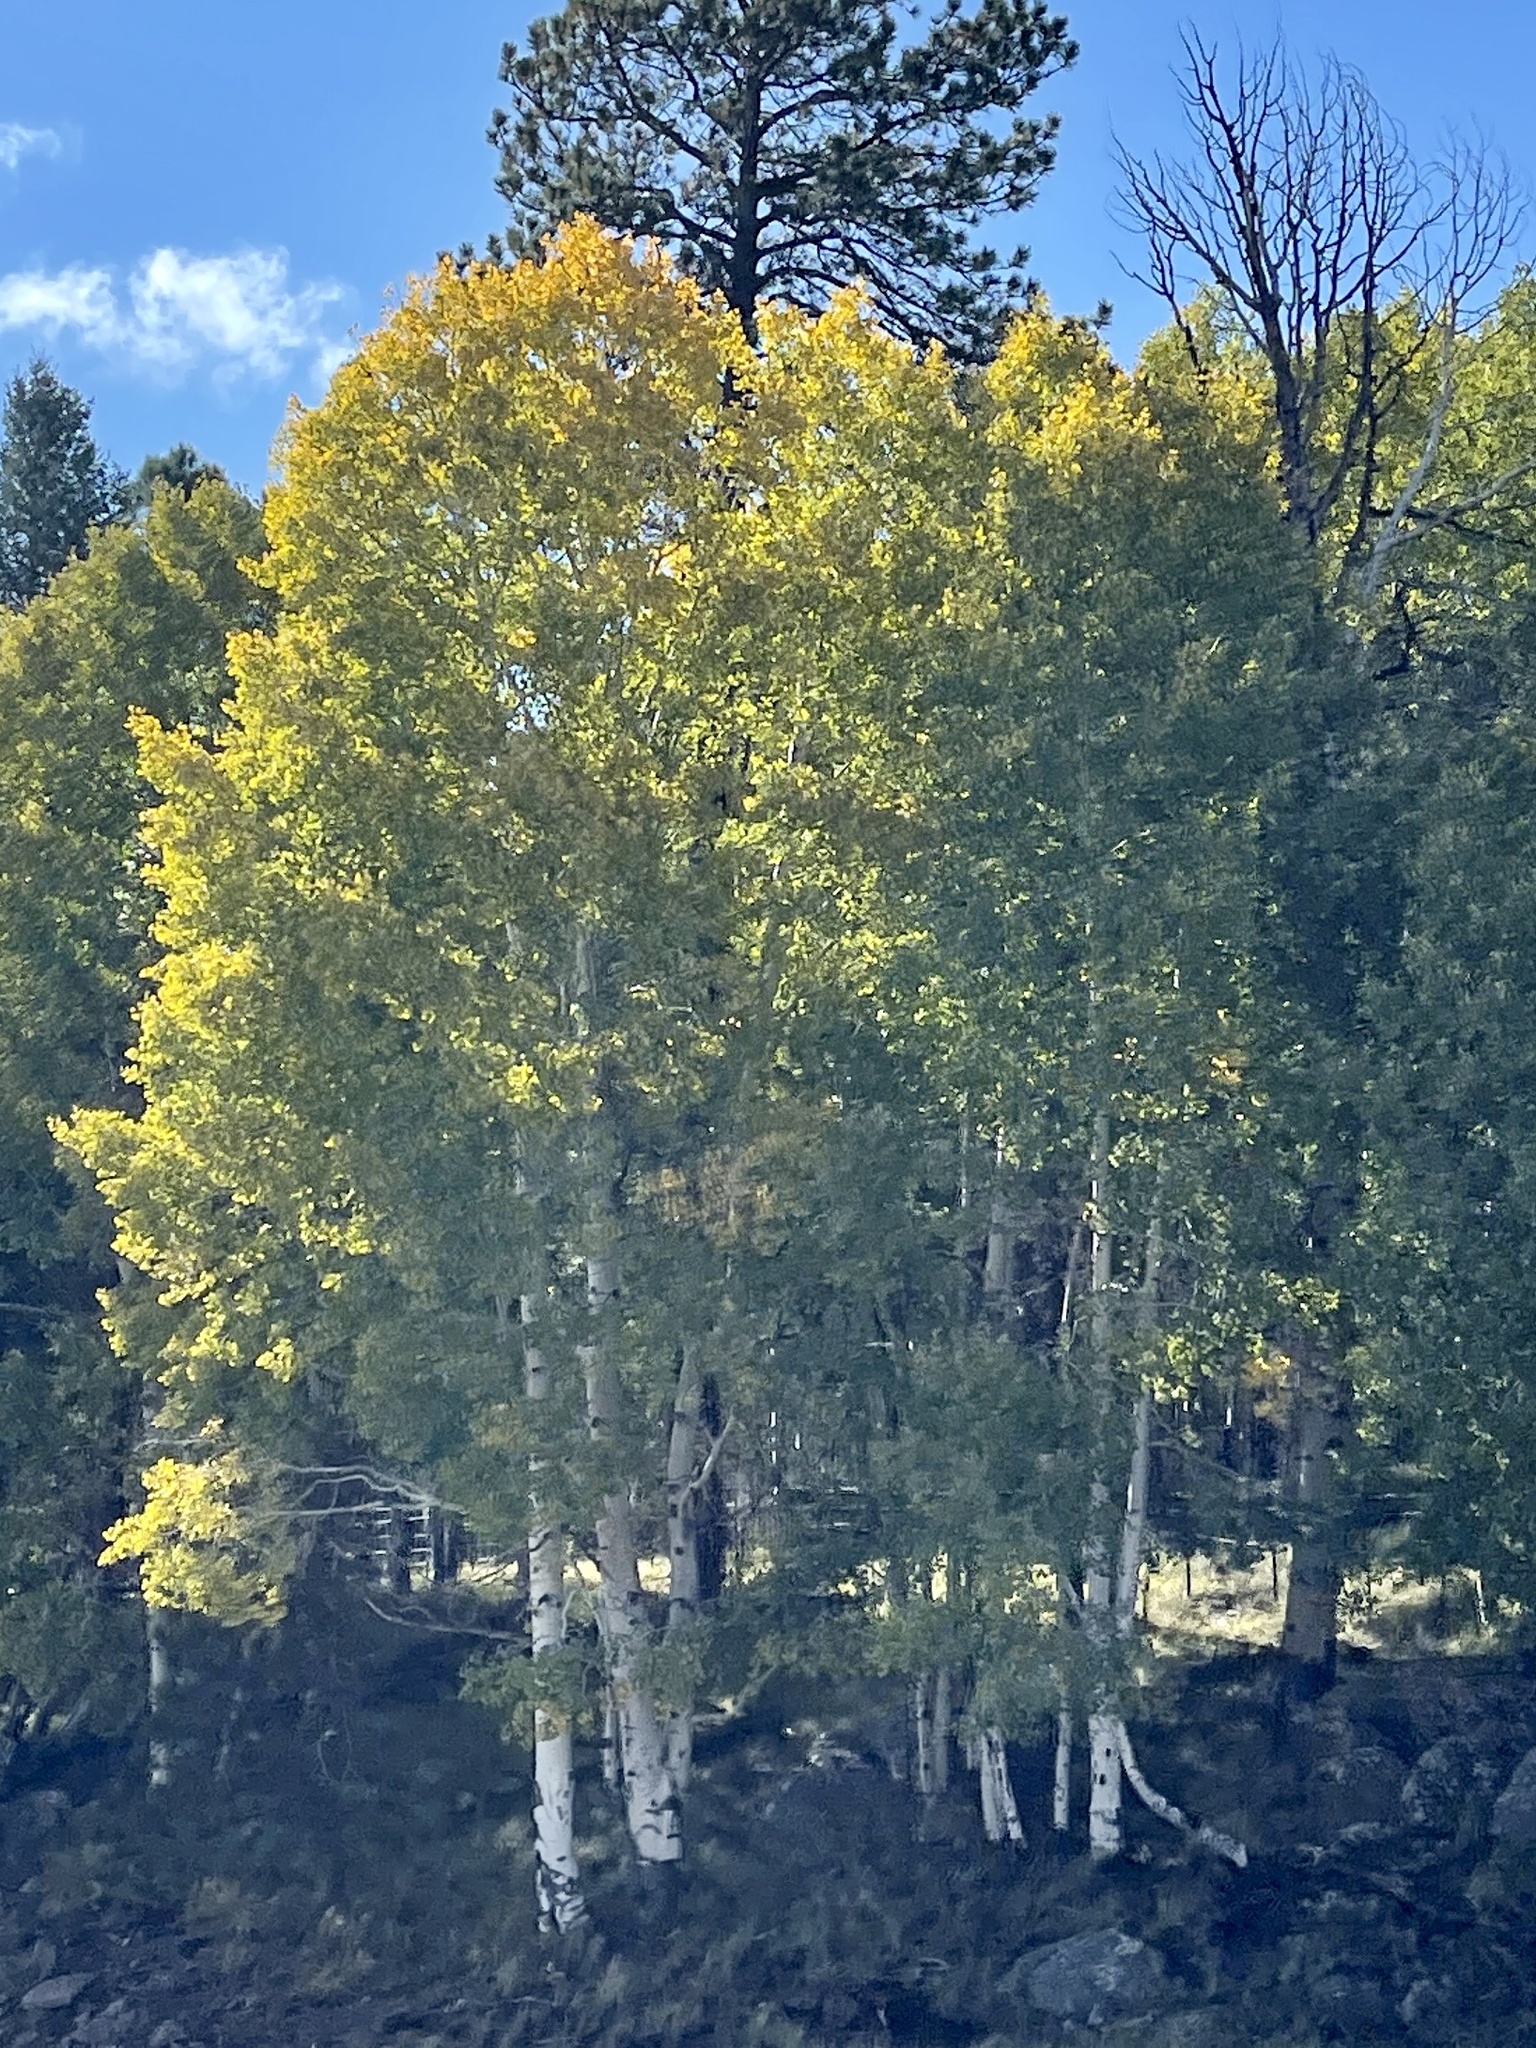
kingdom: Plantae
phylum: Tracheophyta
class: Magnoliopsida
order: Malpighiales
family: Salicaceae
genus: Populus
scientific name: Populus tremuloides
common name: Quaking aspen
